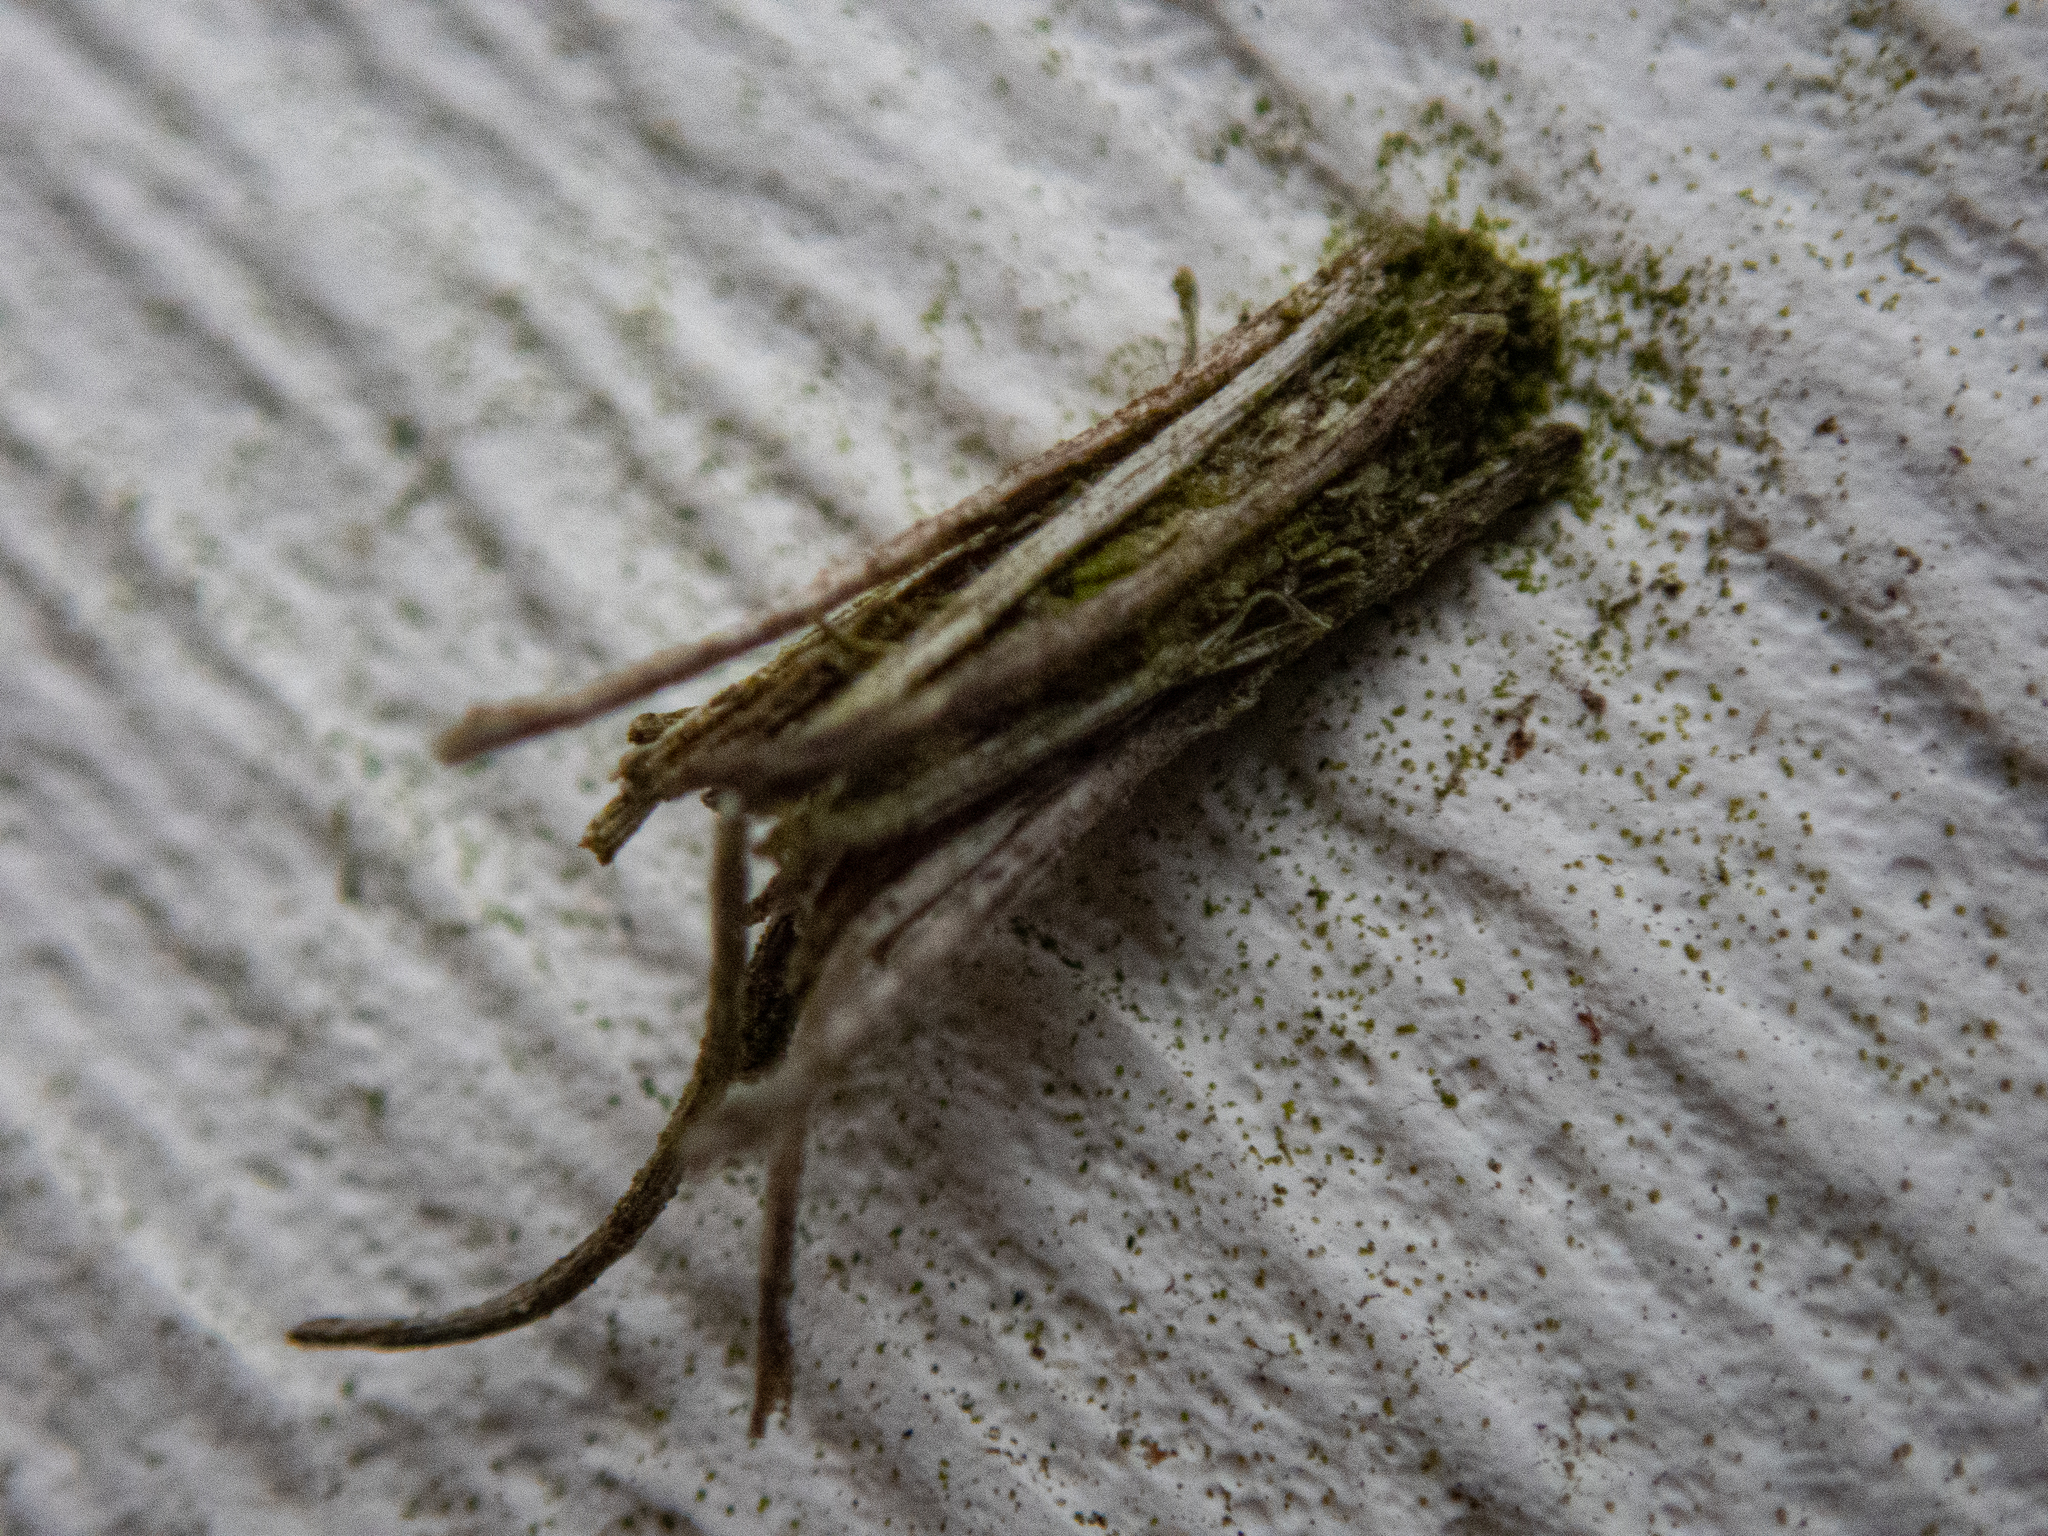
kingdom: Animalia
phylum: Arthropoda
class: Insecta
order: Lepidoptera
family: Psychidae
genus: Psyche
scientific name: Psyche casta
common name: Common sweep
